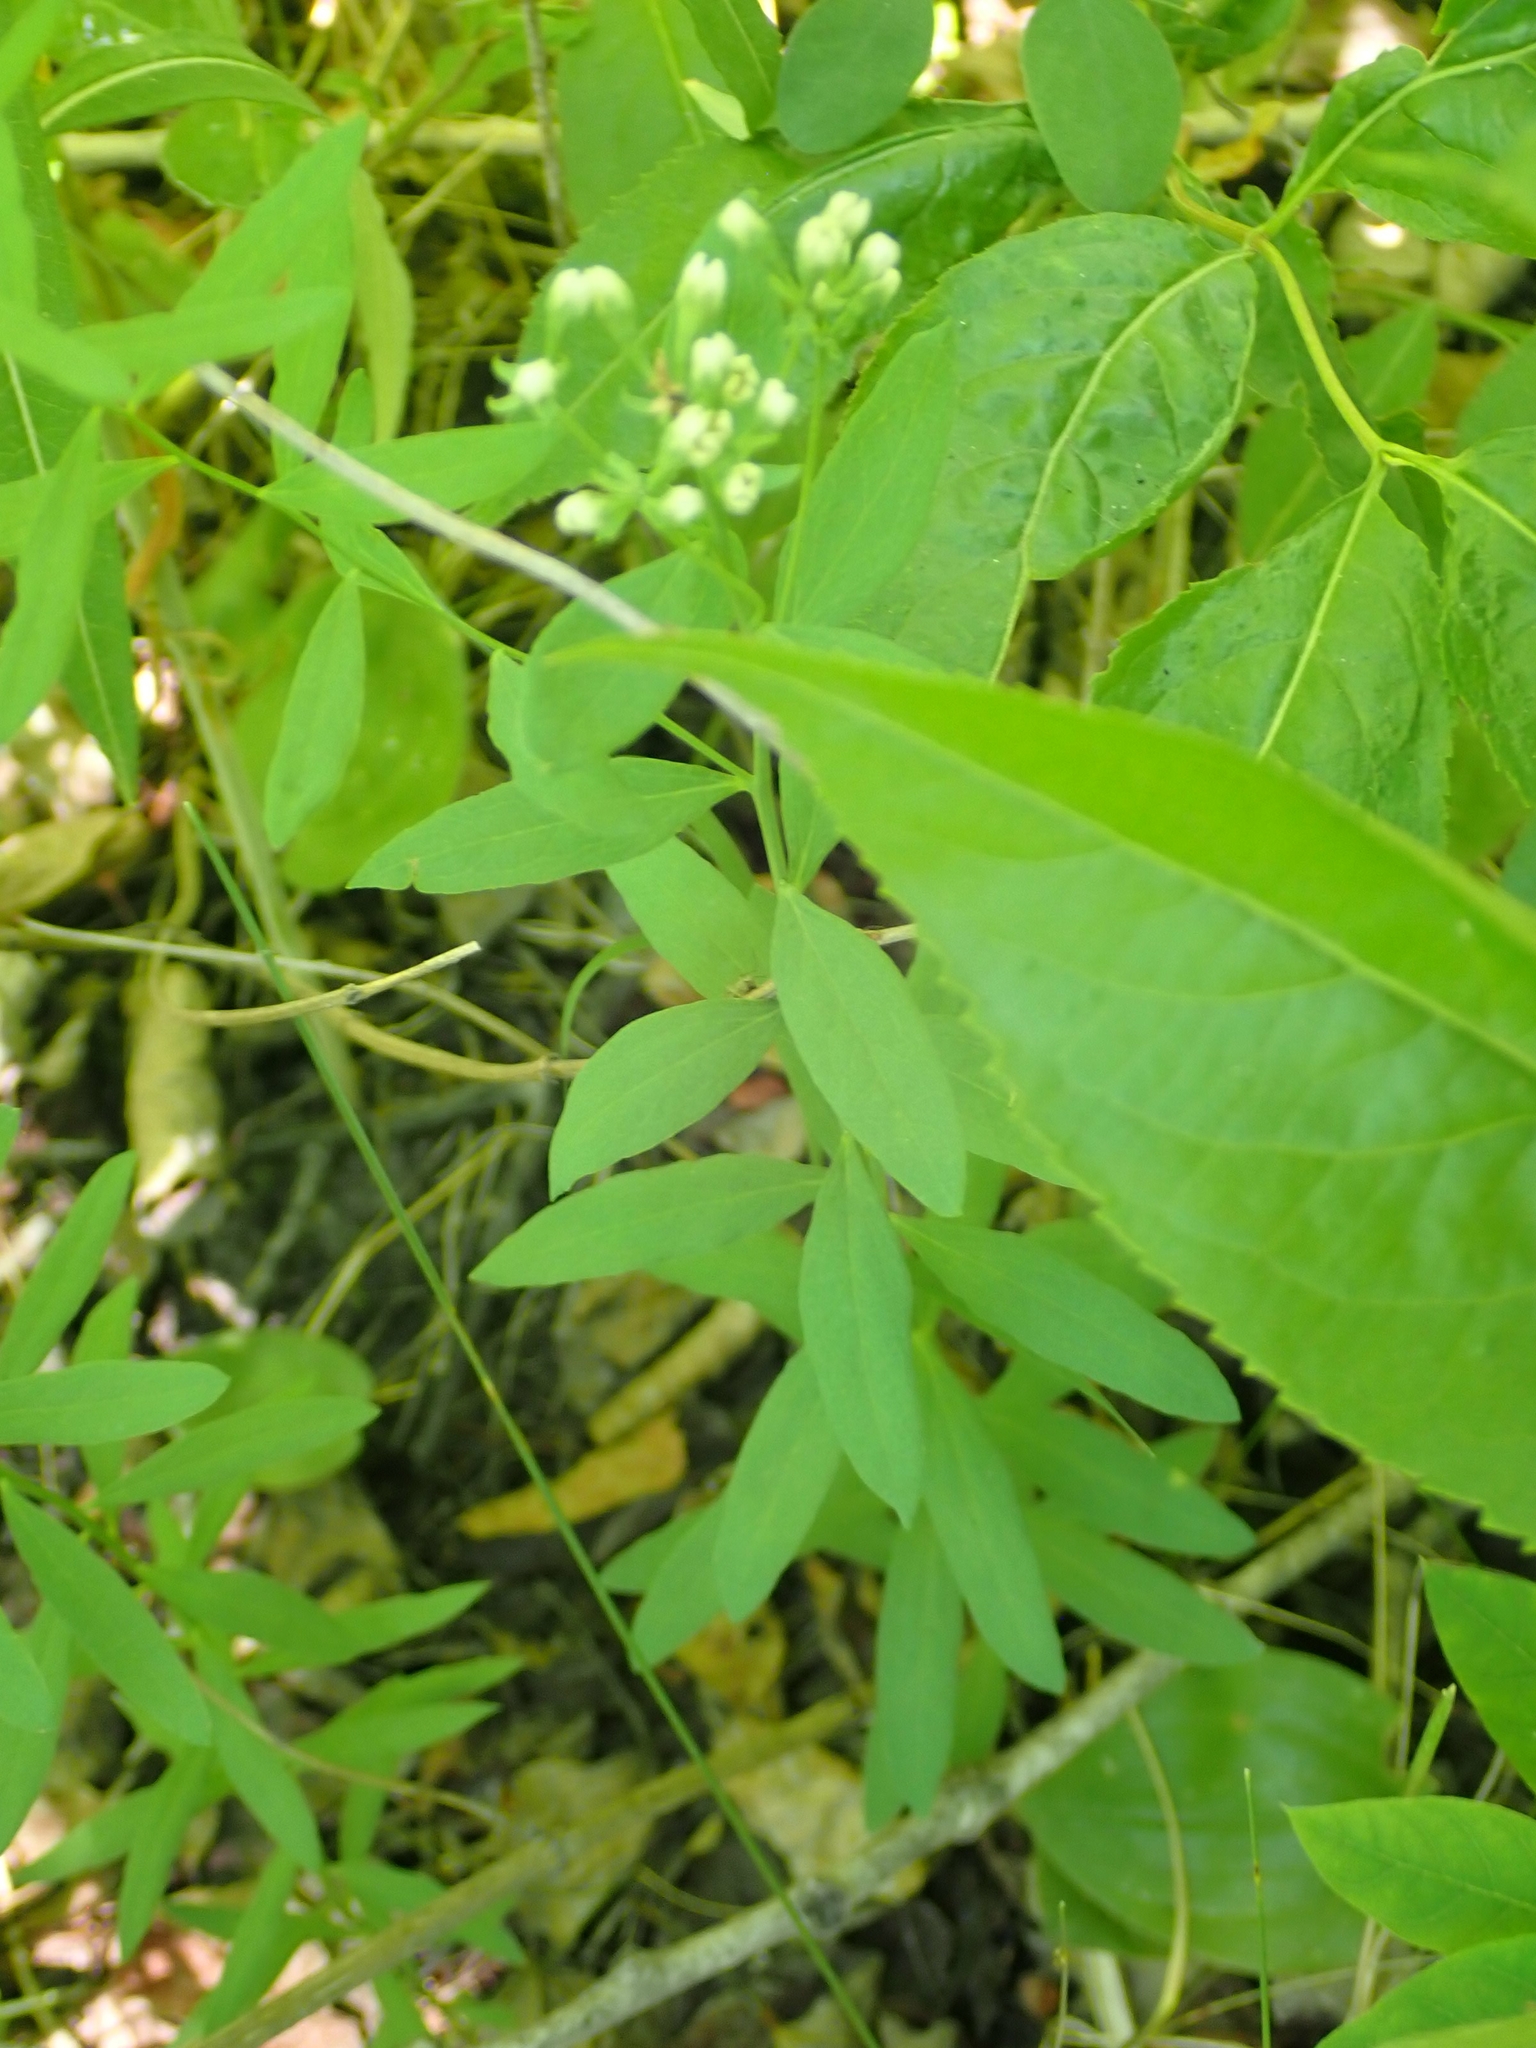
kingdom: Plantae
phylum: Tracheophyta
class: Magnoliopsida
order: Santalales
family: Comandraceae
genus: Comandra
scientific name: Comandra umbellata
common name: Bastard toadflax
